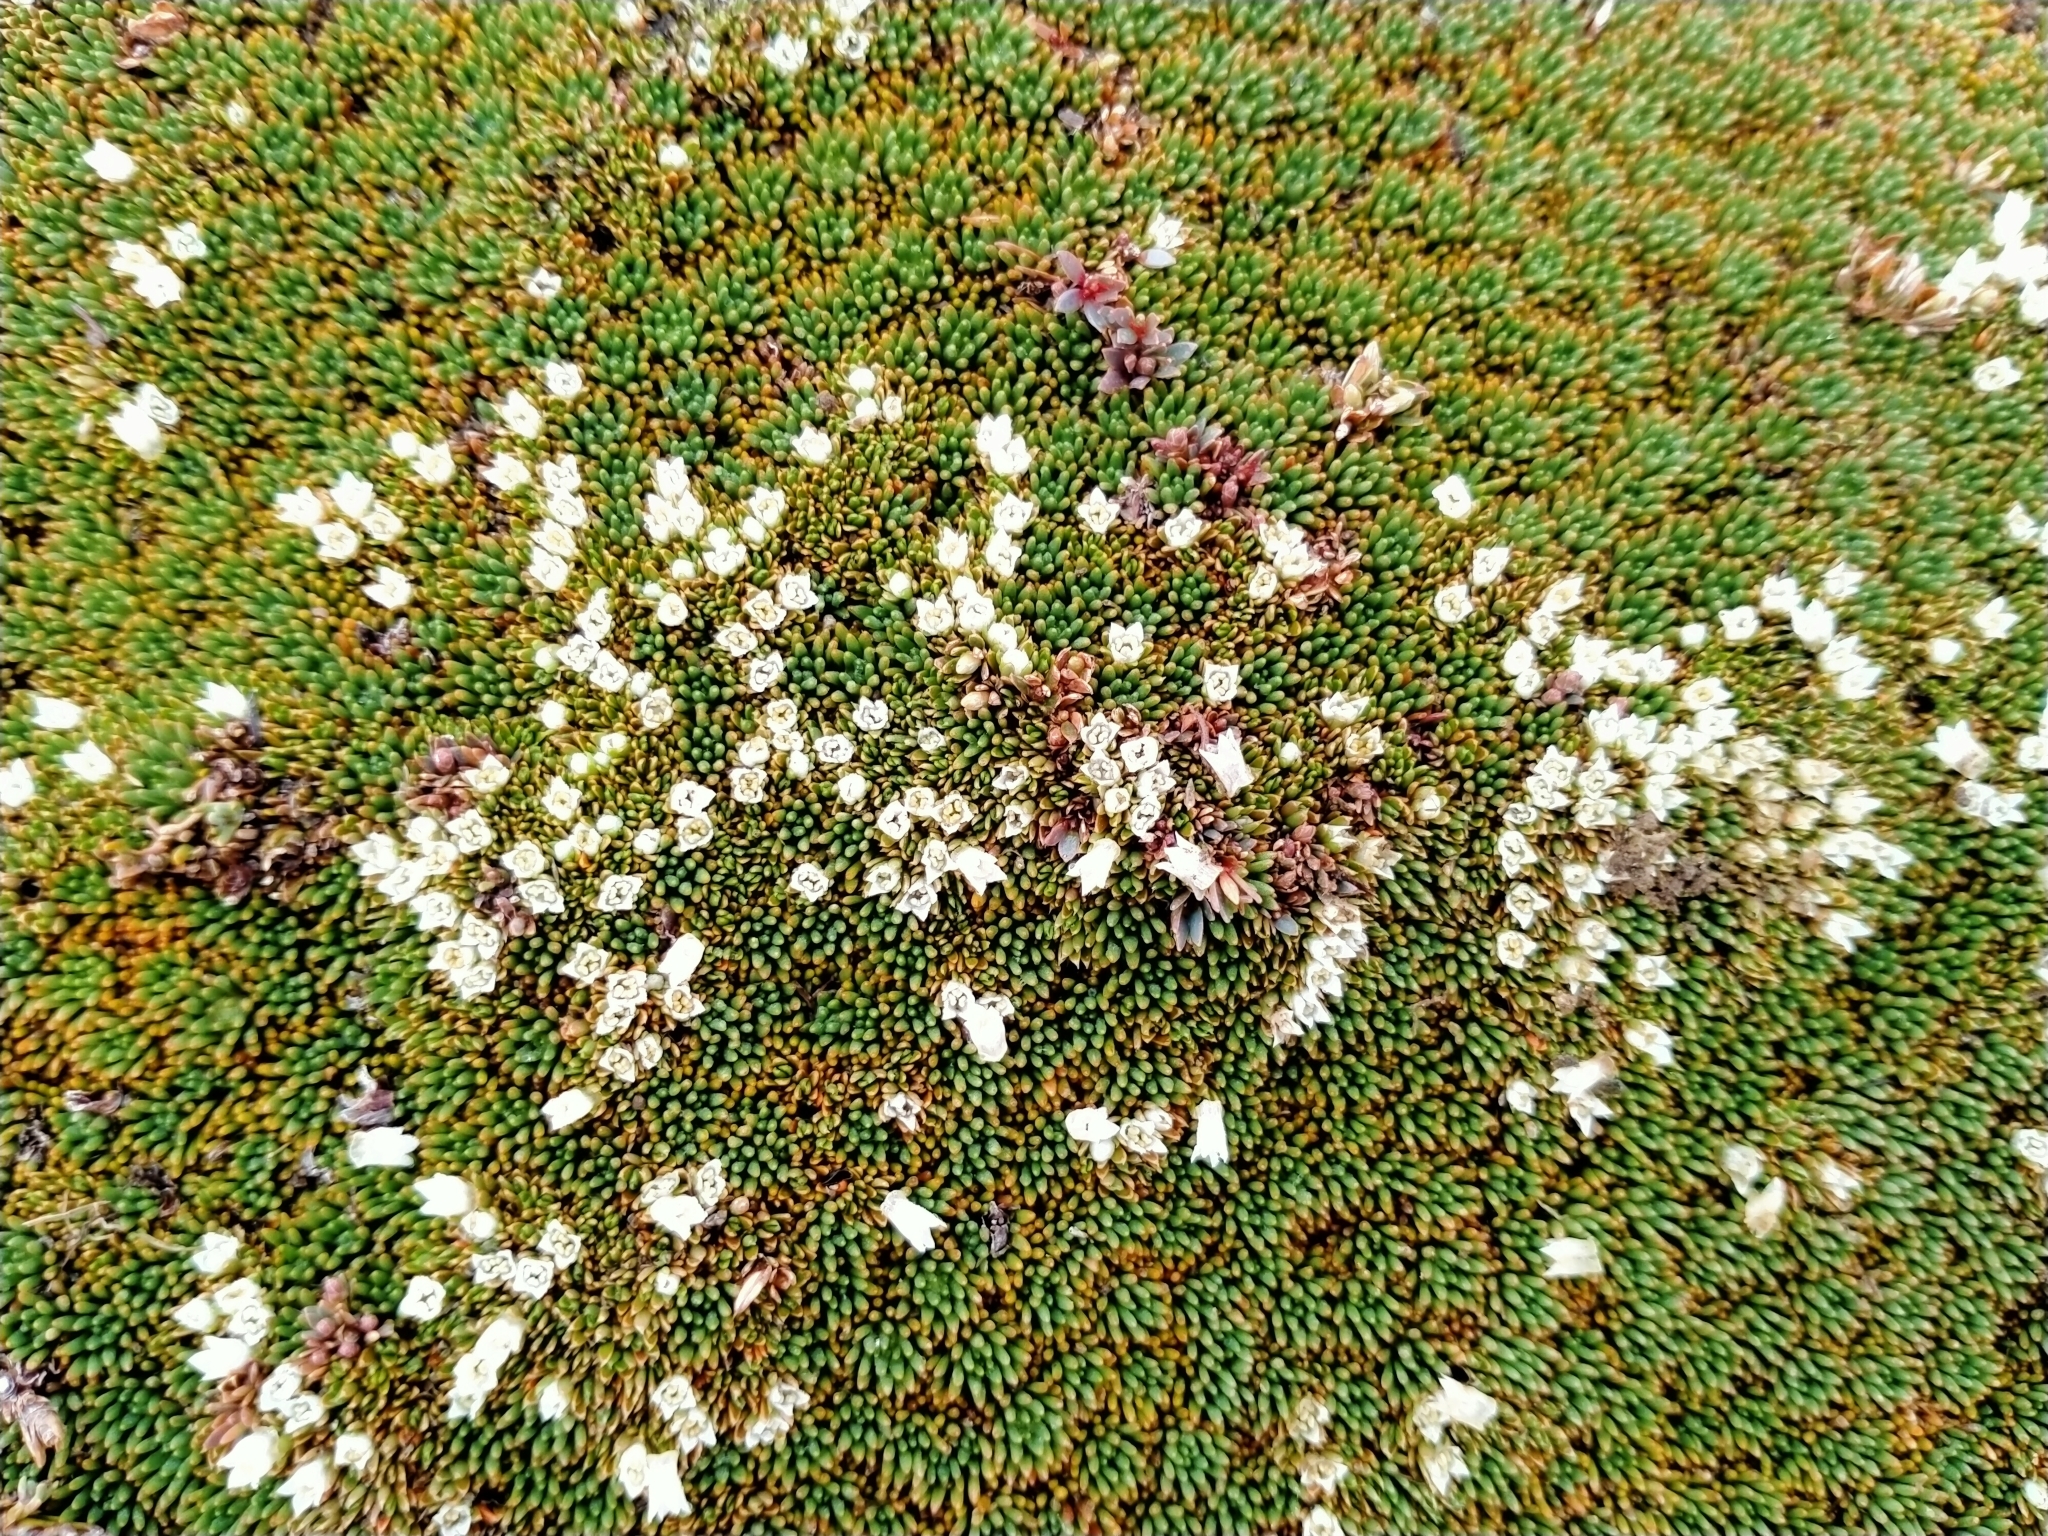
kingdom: Plantae
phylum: Tracheophyta
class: Magnoliopsida
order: Asterales
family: Stylidiaceae
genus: Donatia
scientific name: Donatia novae-zelandiae
